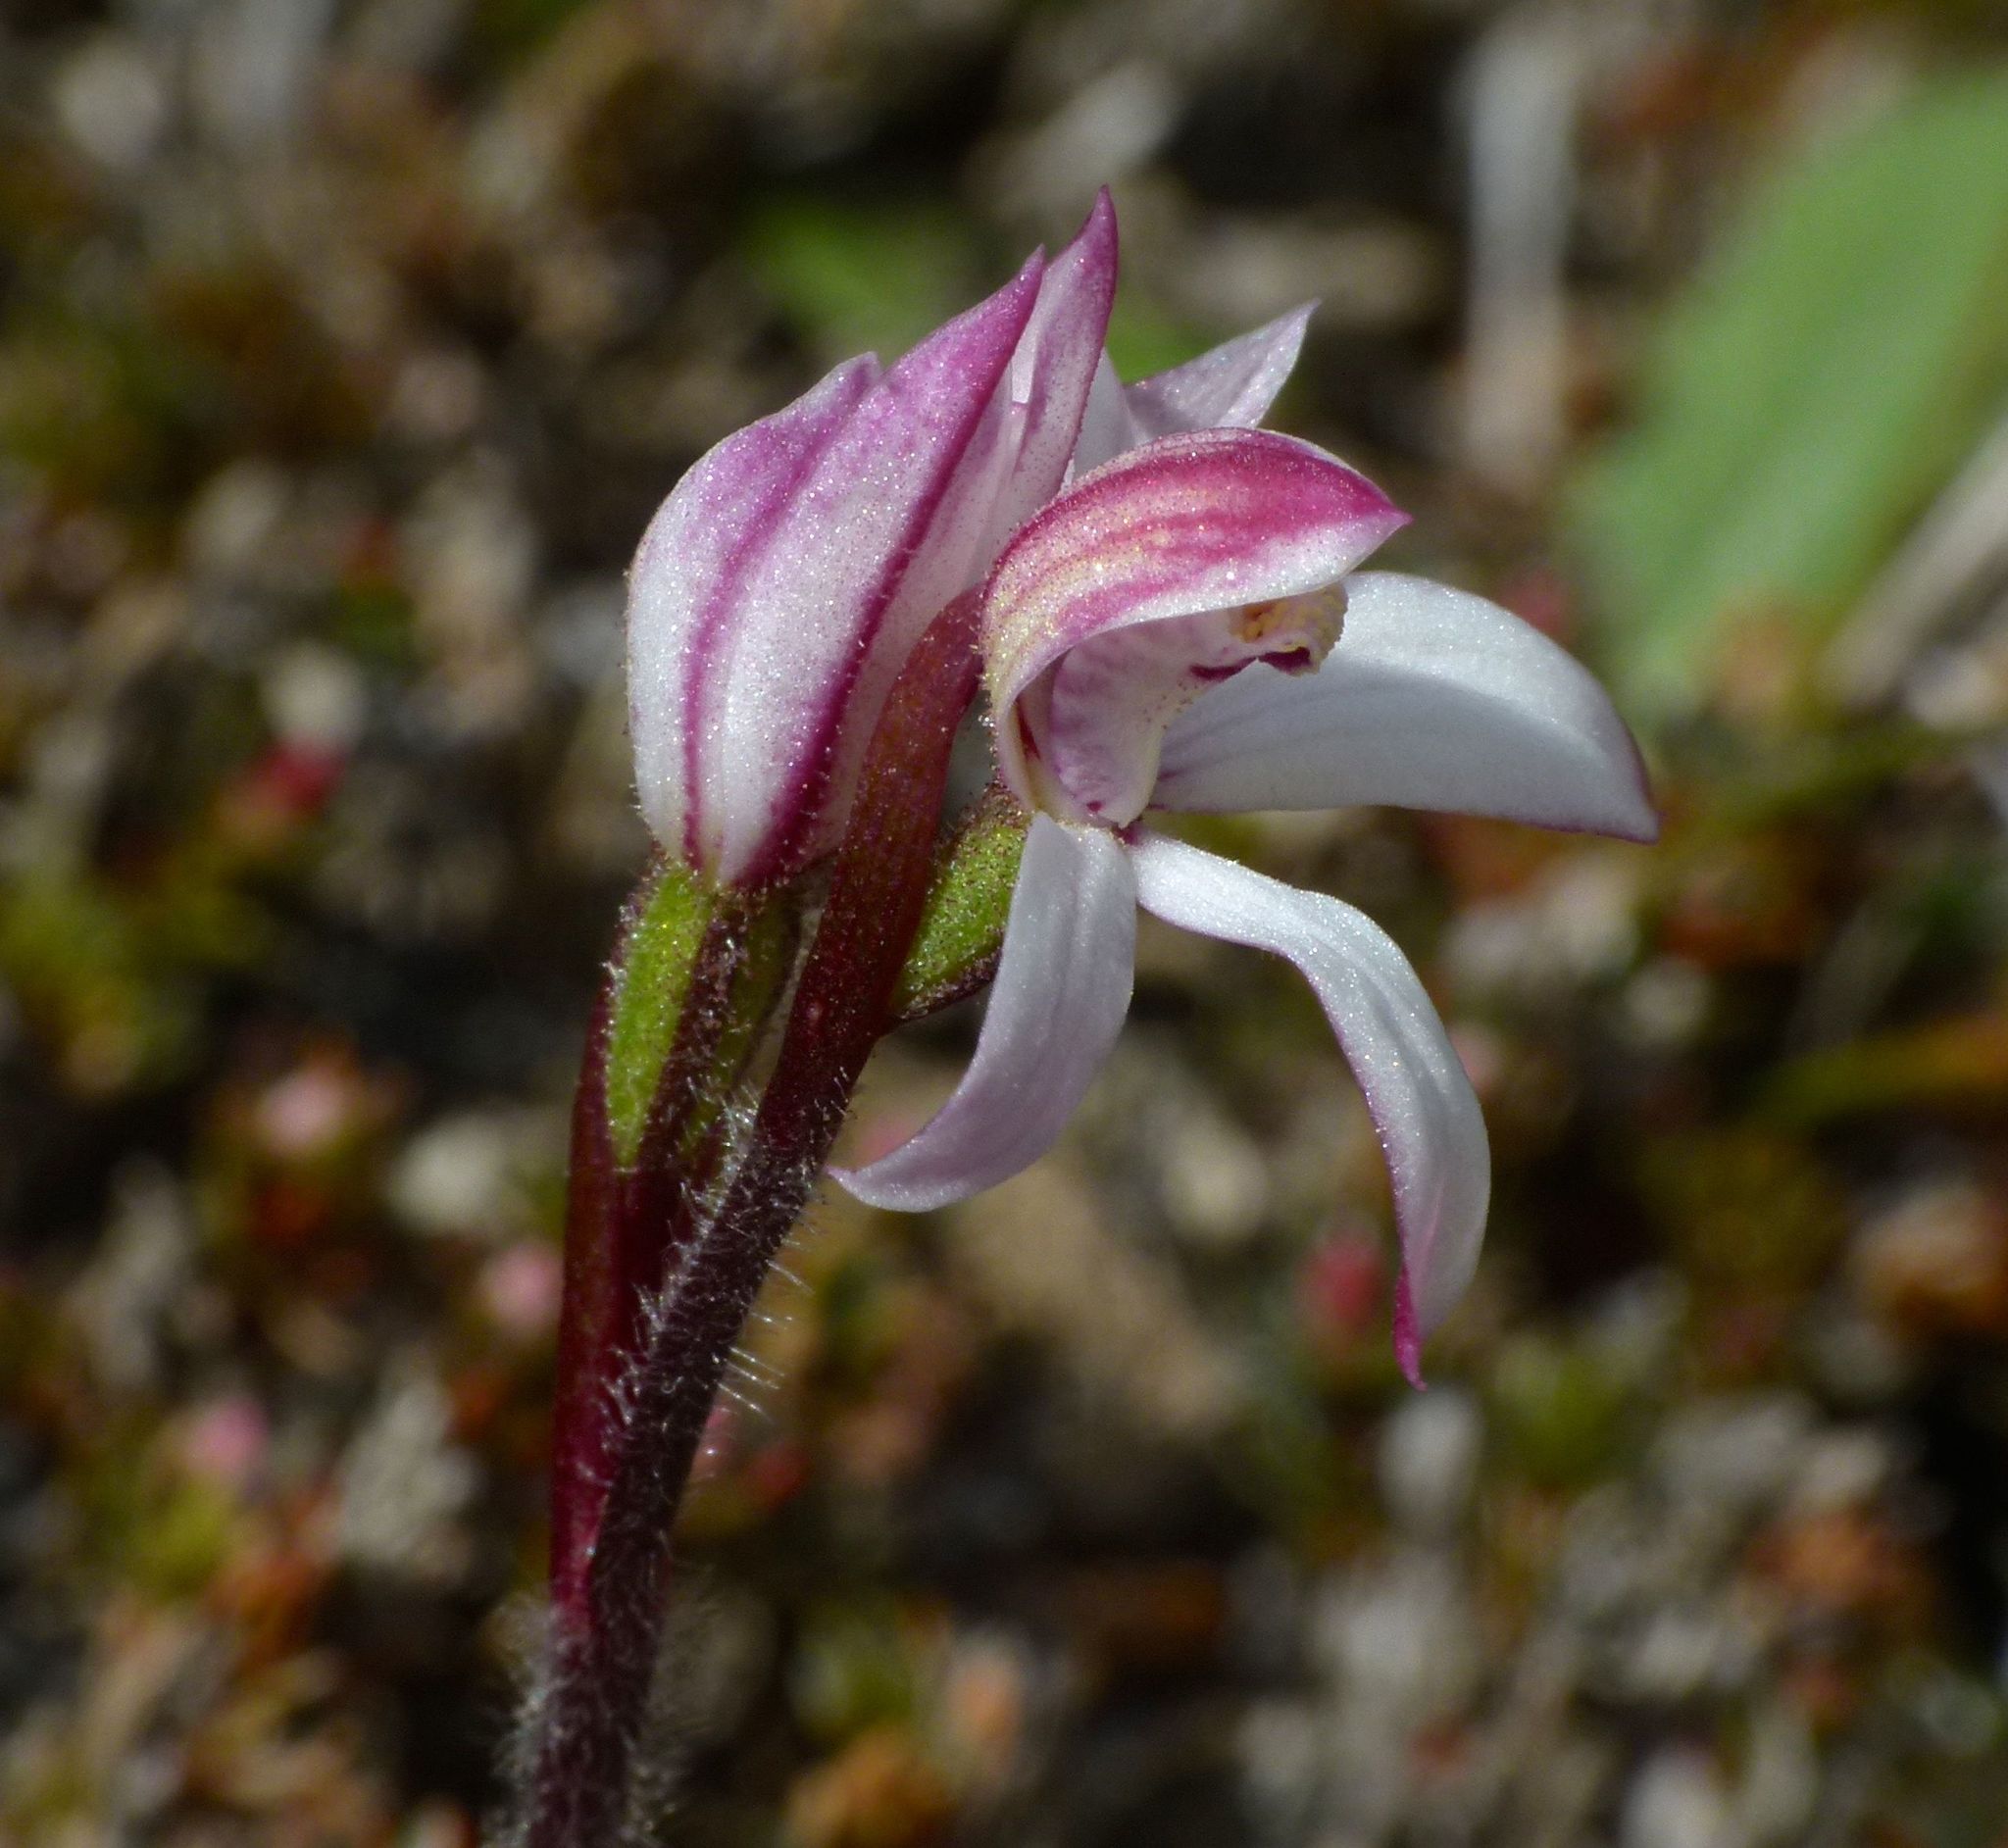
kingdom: Plantae
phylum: Tracheophyta
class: Liliopsida
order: Asparagales
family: Orchidaceae
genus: Caladenia
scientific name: Caladenia lyallii
